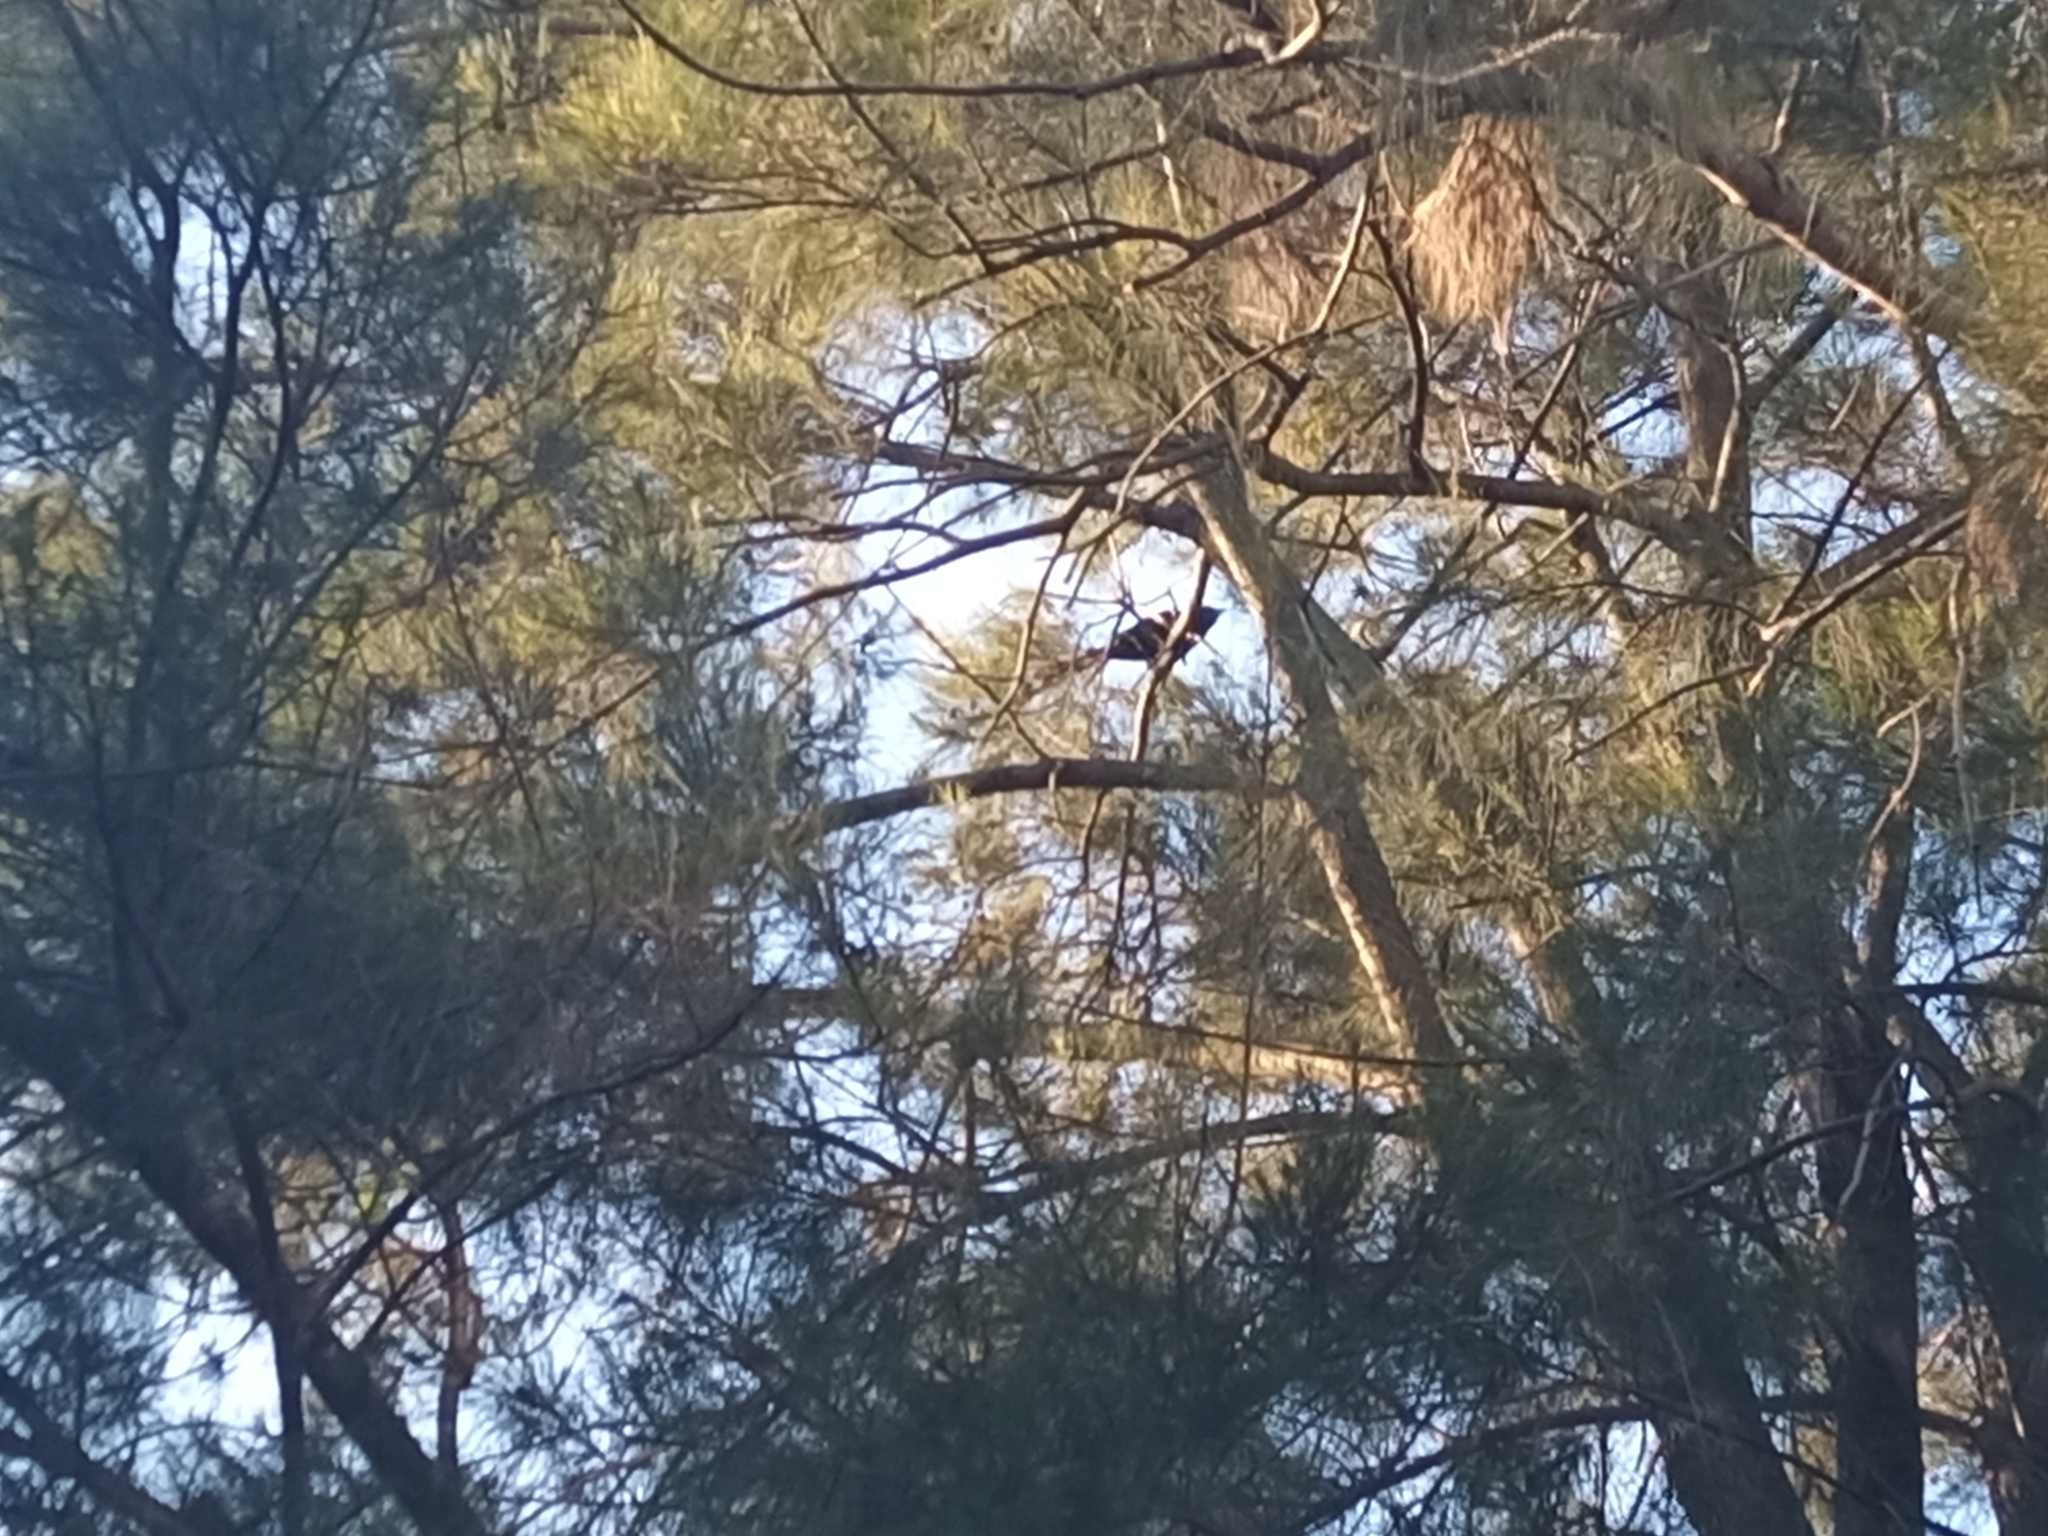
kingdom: Animalia
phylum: Chordata
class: Aves
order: Cuculiformes
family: Cuculidae
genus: Eudynamys
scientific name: Eudynamys orientalis
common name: Pacific koel
